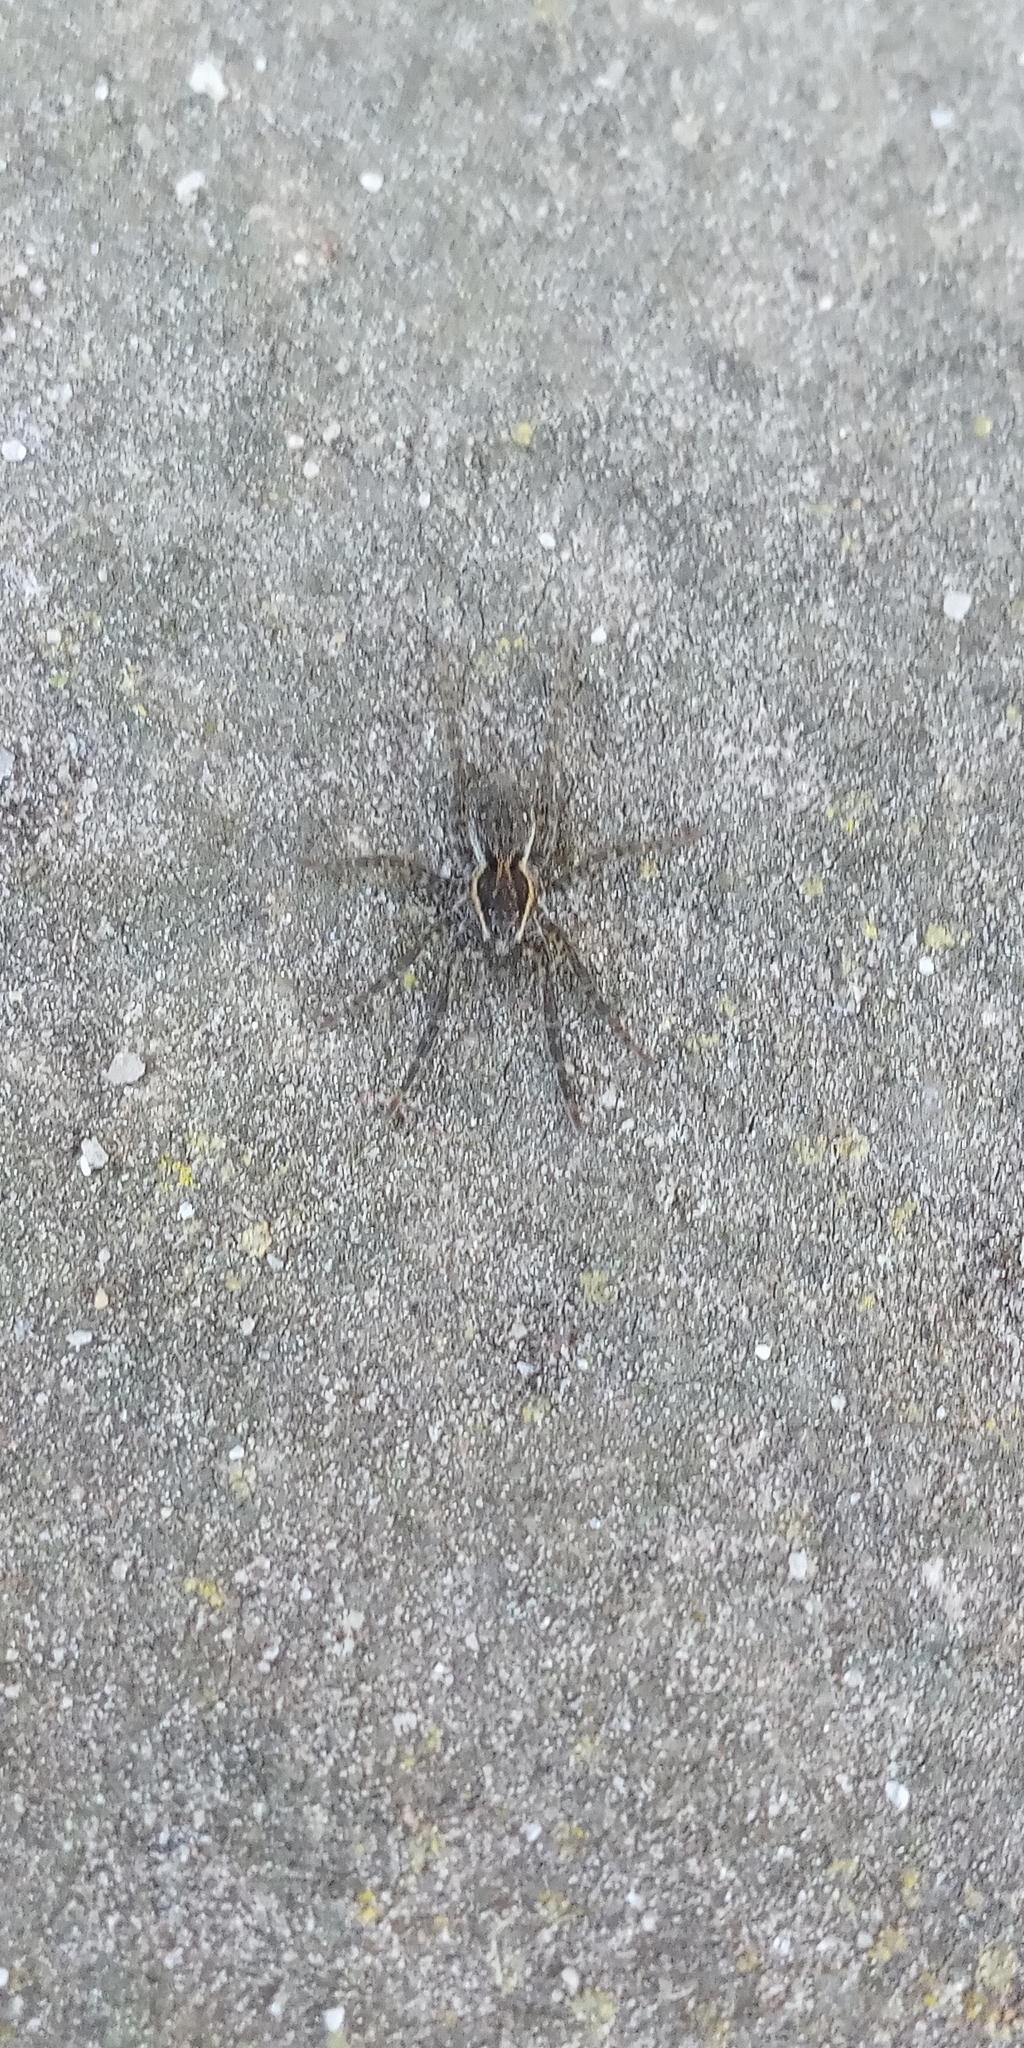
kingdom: Animalia
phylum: Arthropoda
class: Arachnida
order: Araneae
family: Lycosidae
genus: Trochosa
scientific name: Trochosa niveopilosa
